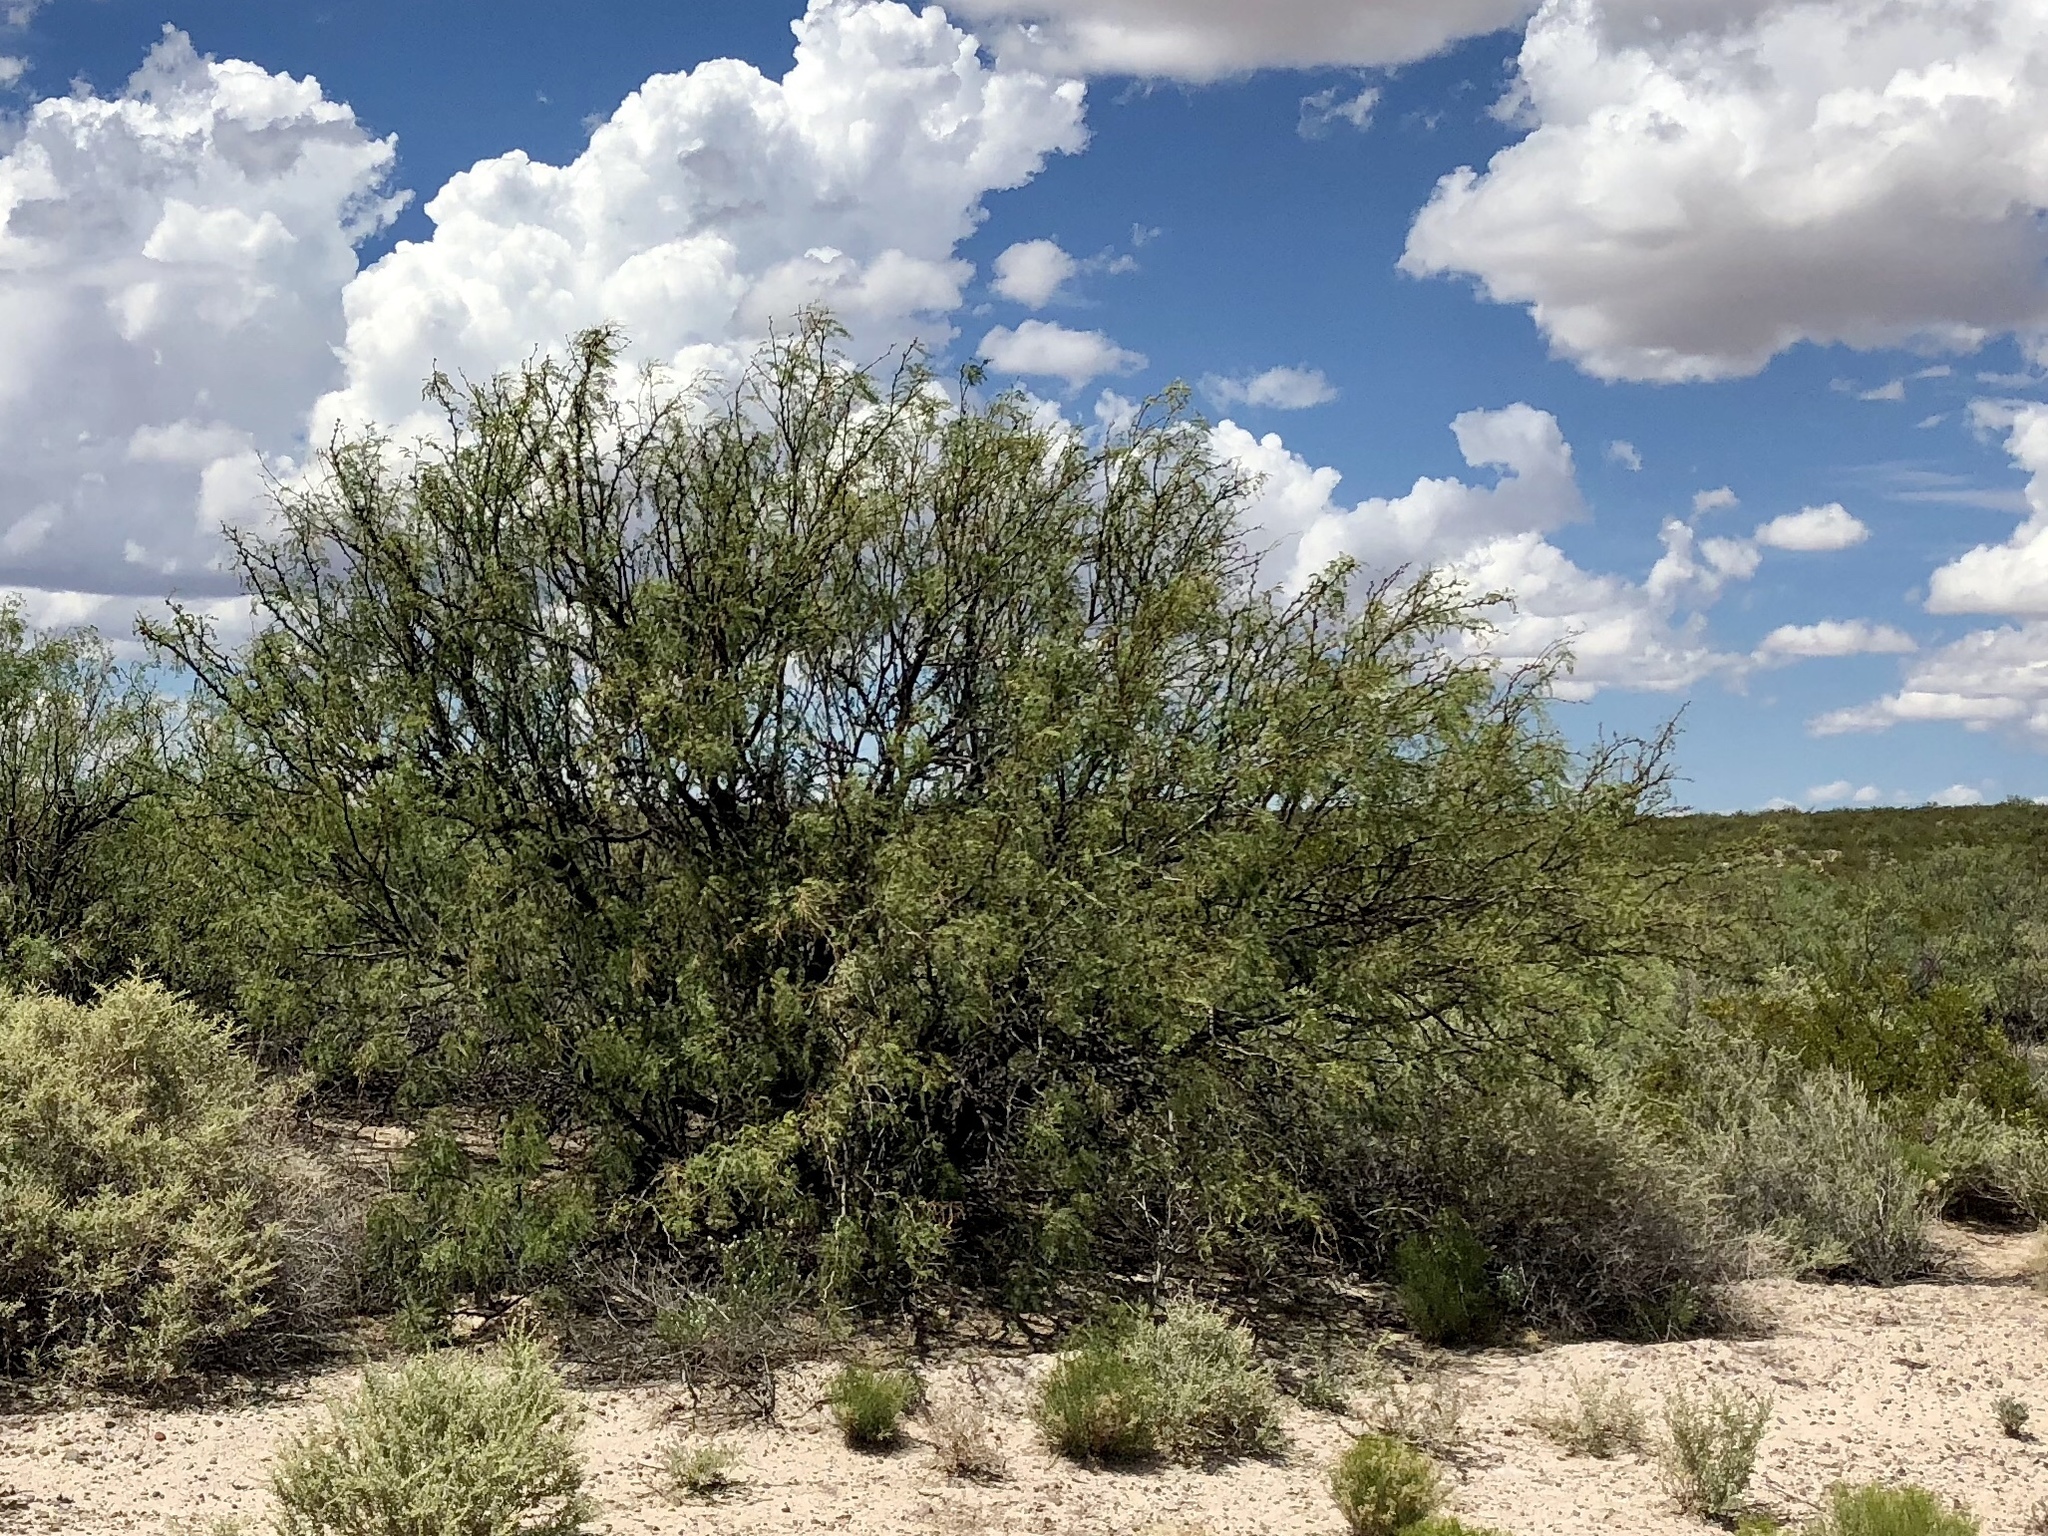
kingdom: Plantae
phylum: Tracheophyta
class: Magnoliopsida
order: Fabales
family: Fabaceae
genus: Prosopis
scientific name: Prosopis glandulosa
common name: Honey mesquite
